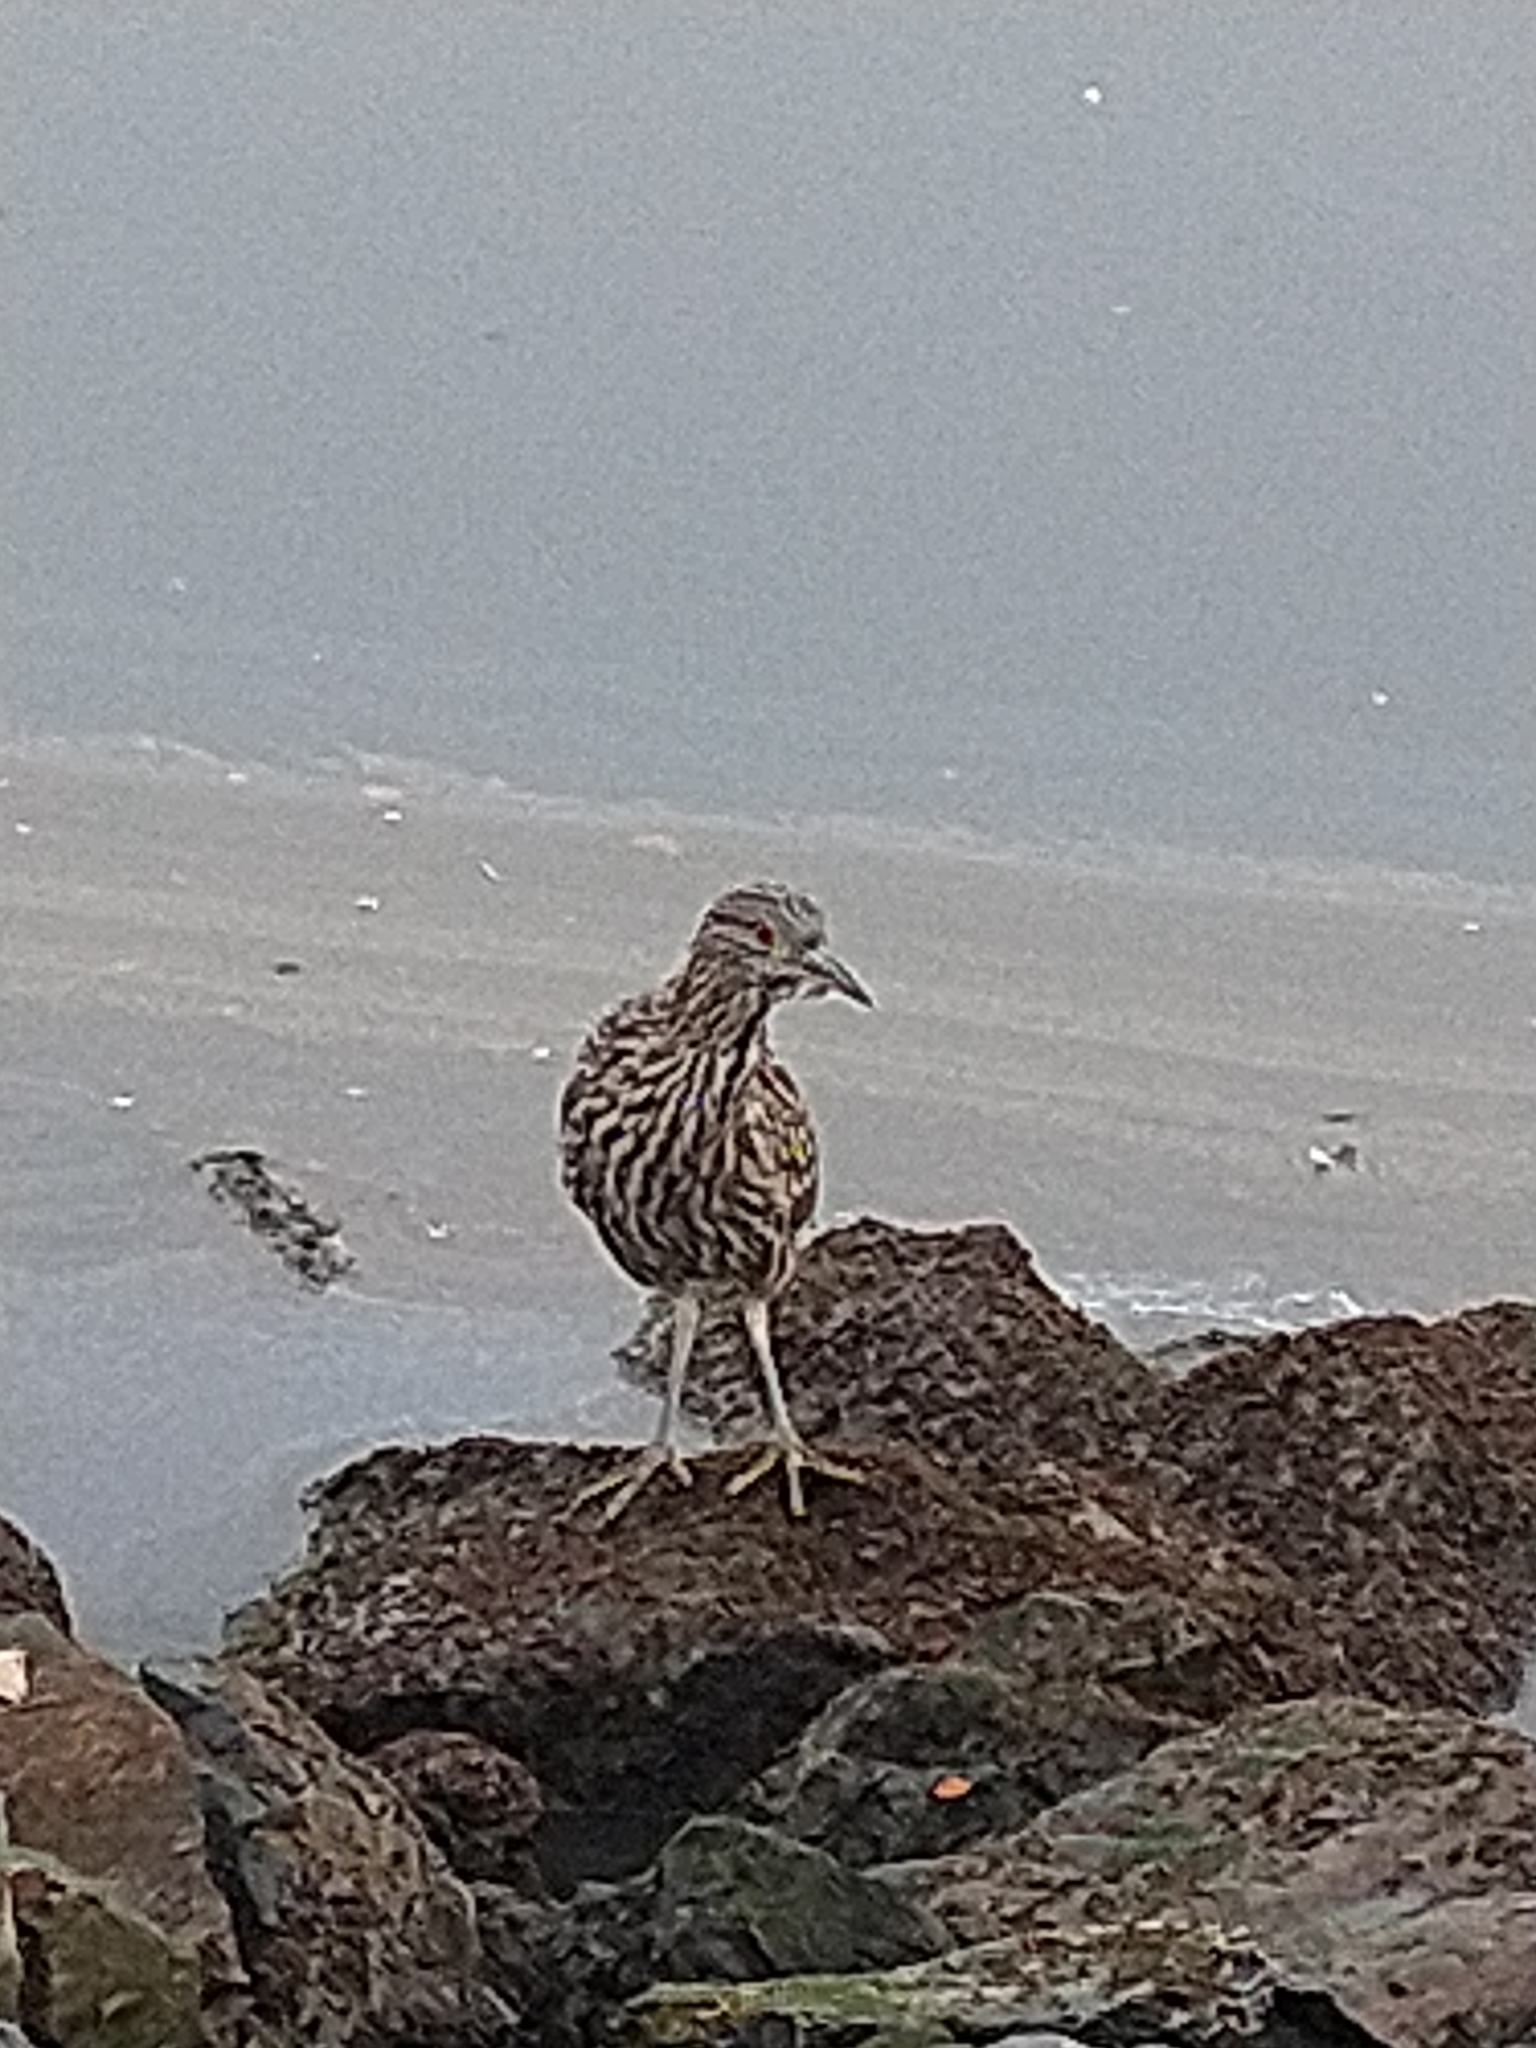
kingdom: Animalia
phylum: Chordata
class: Aves
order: Pelecaniformes
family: Ardeidae
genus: Nycticorax
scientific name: Nycticorax nycticorax
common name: Black-crowned night heron
